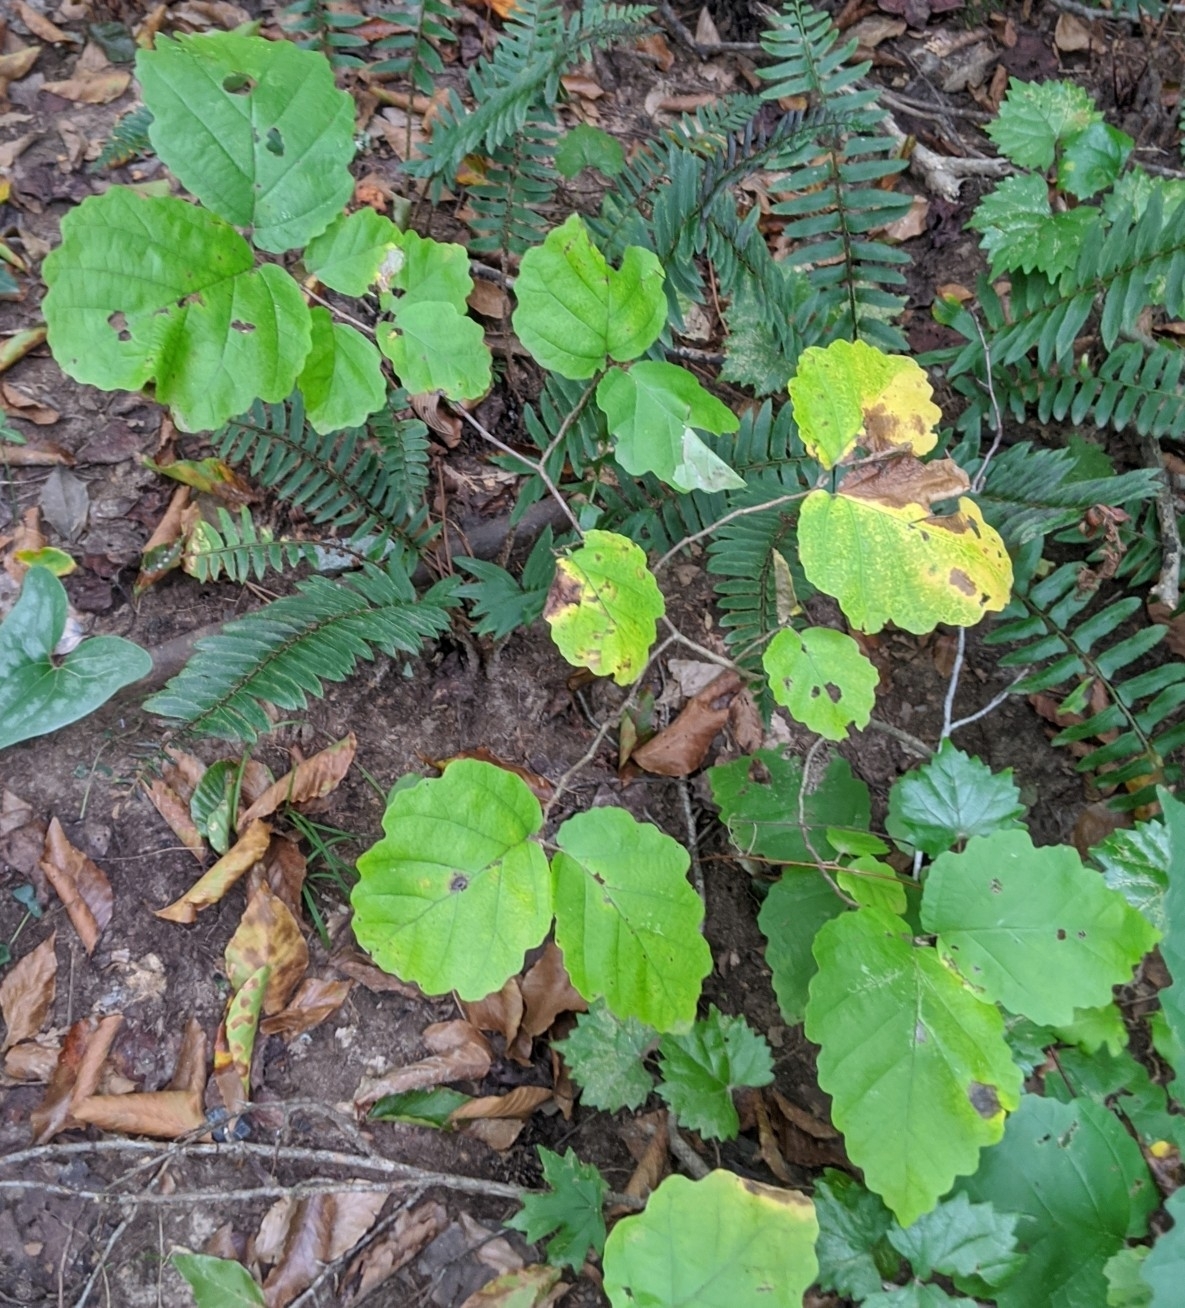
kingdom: Plantae
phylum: Tracheophyta
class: Magnoliopsida
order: Saxifragales
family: Hamamelidaceae
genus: Hamamelis
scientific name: Hamamelis virginiana
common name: Witch-hazel
